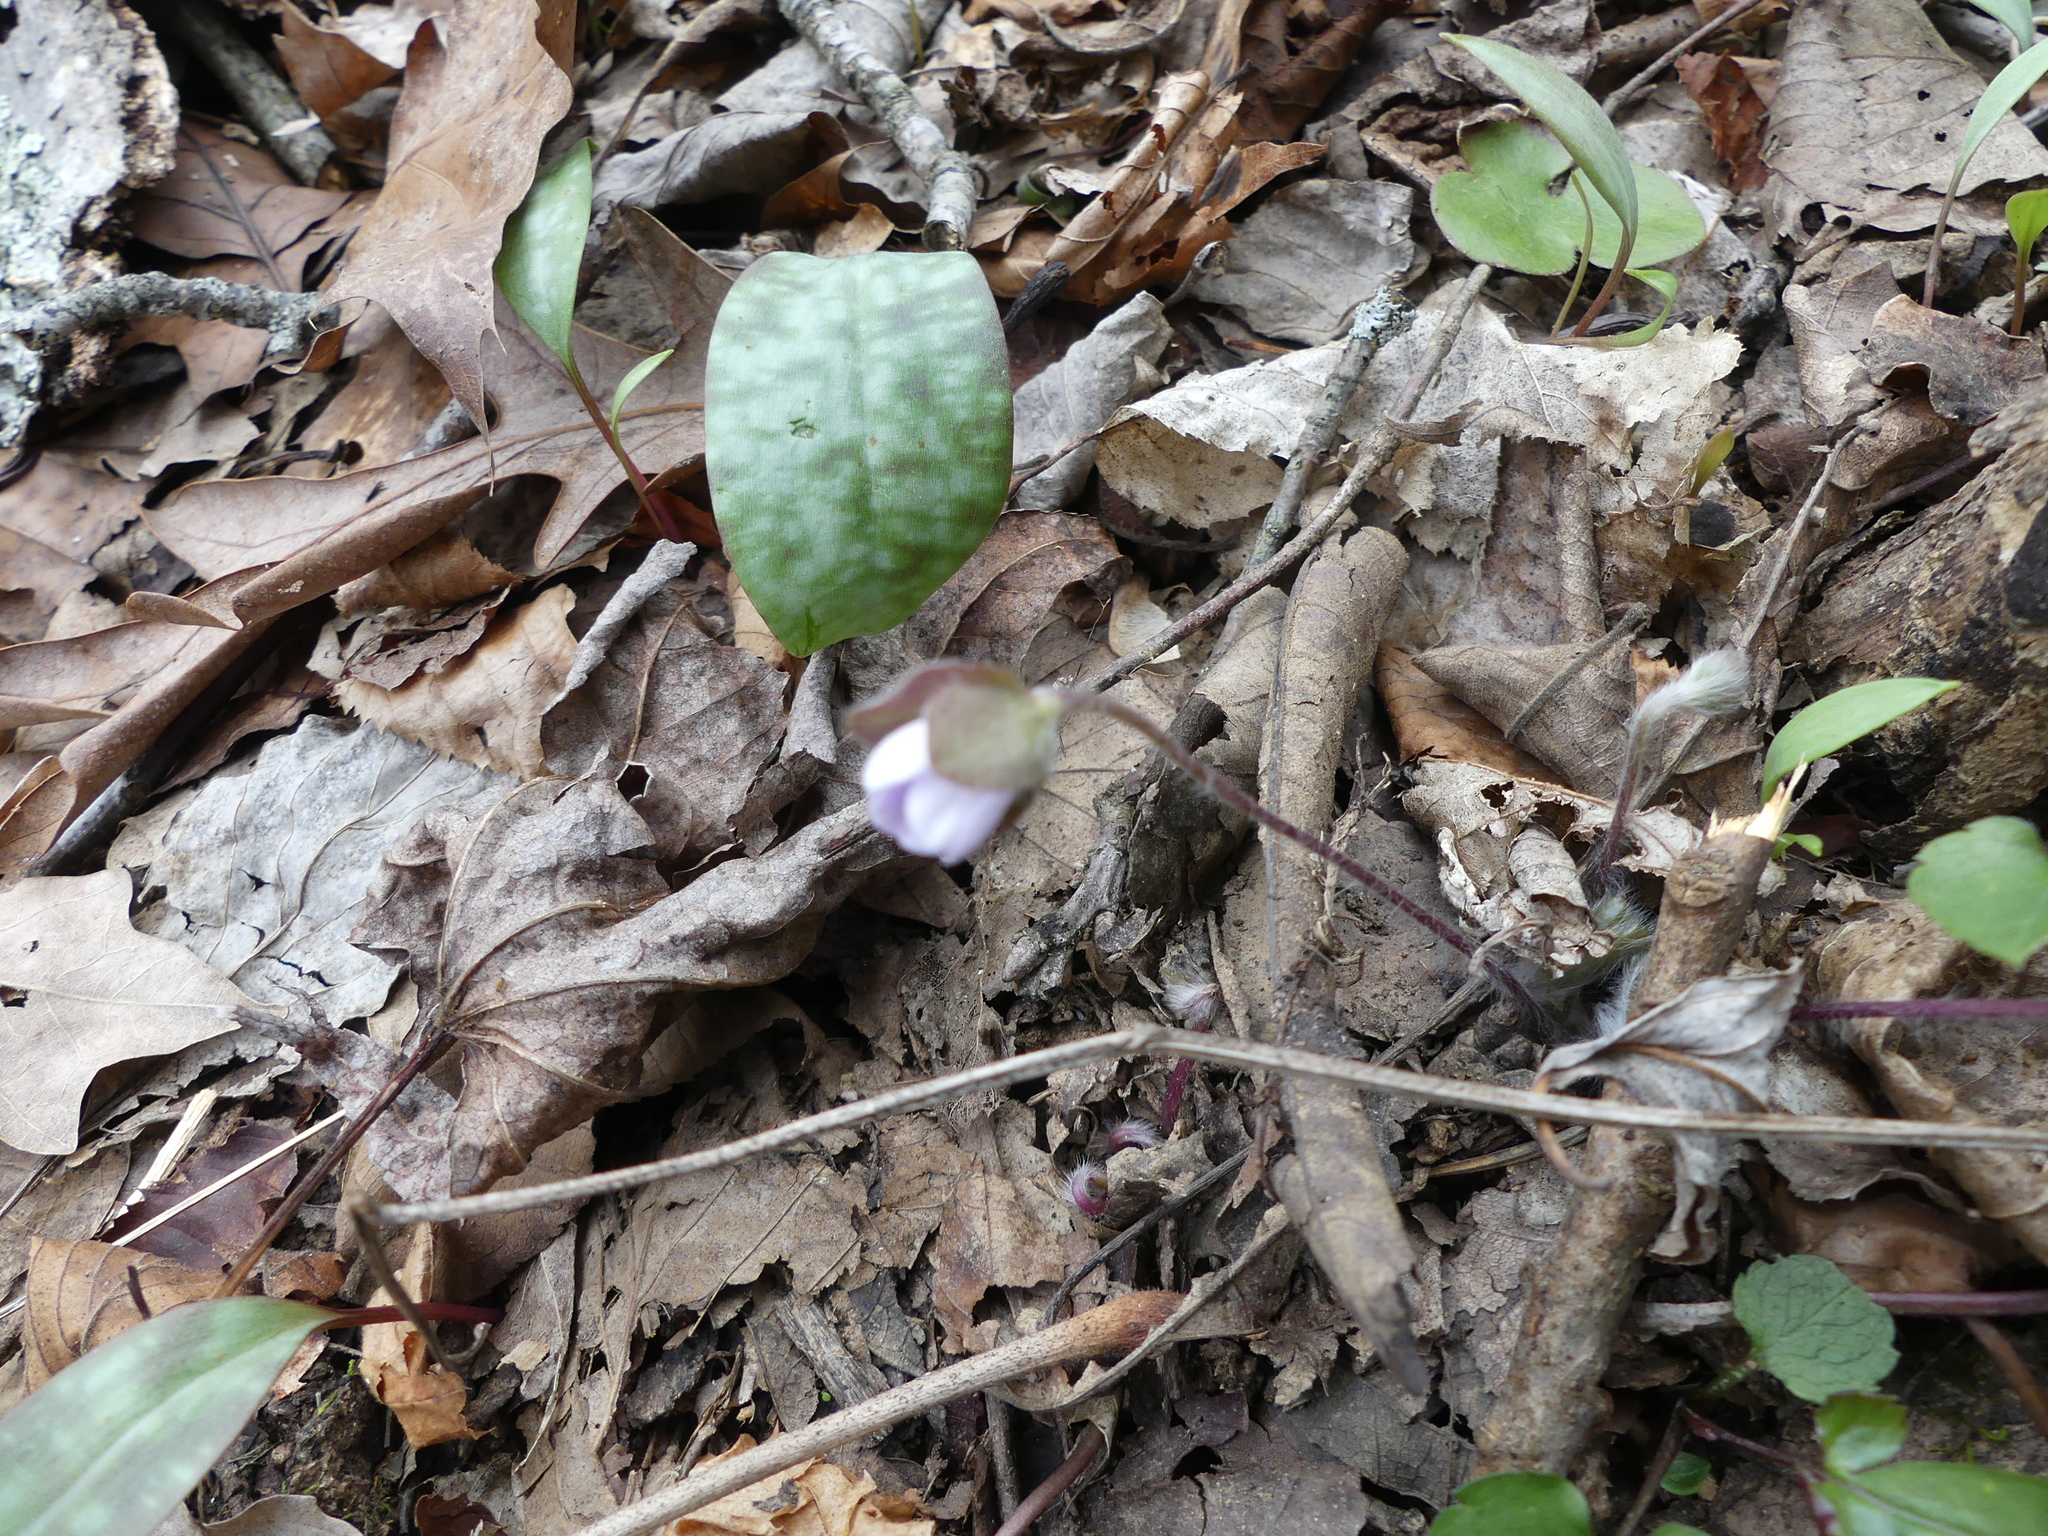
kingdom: Plantae
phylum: Tracheophyta
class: Magnoliopsida
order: Ranunculales
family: Ranunculaceae
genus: Hepatica
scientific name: Hepatica americana
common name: American hepatica
